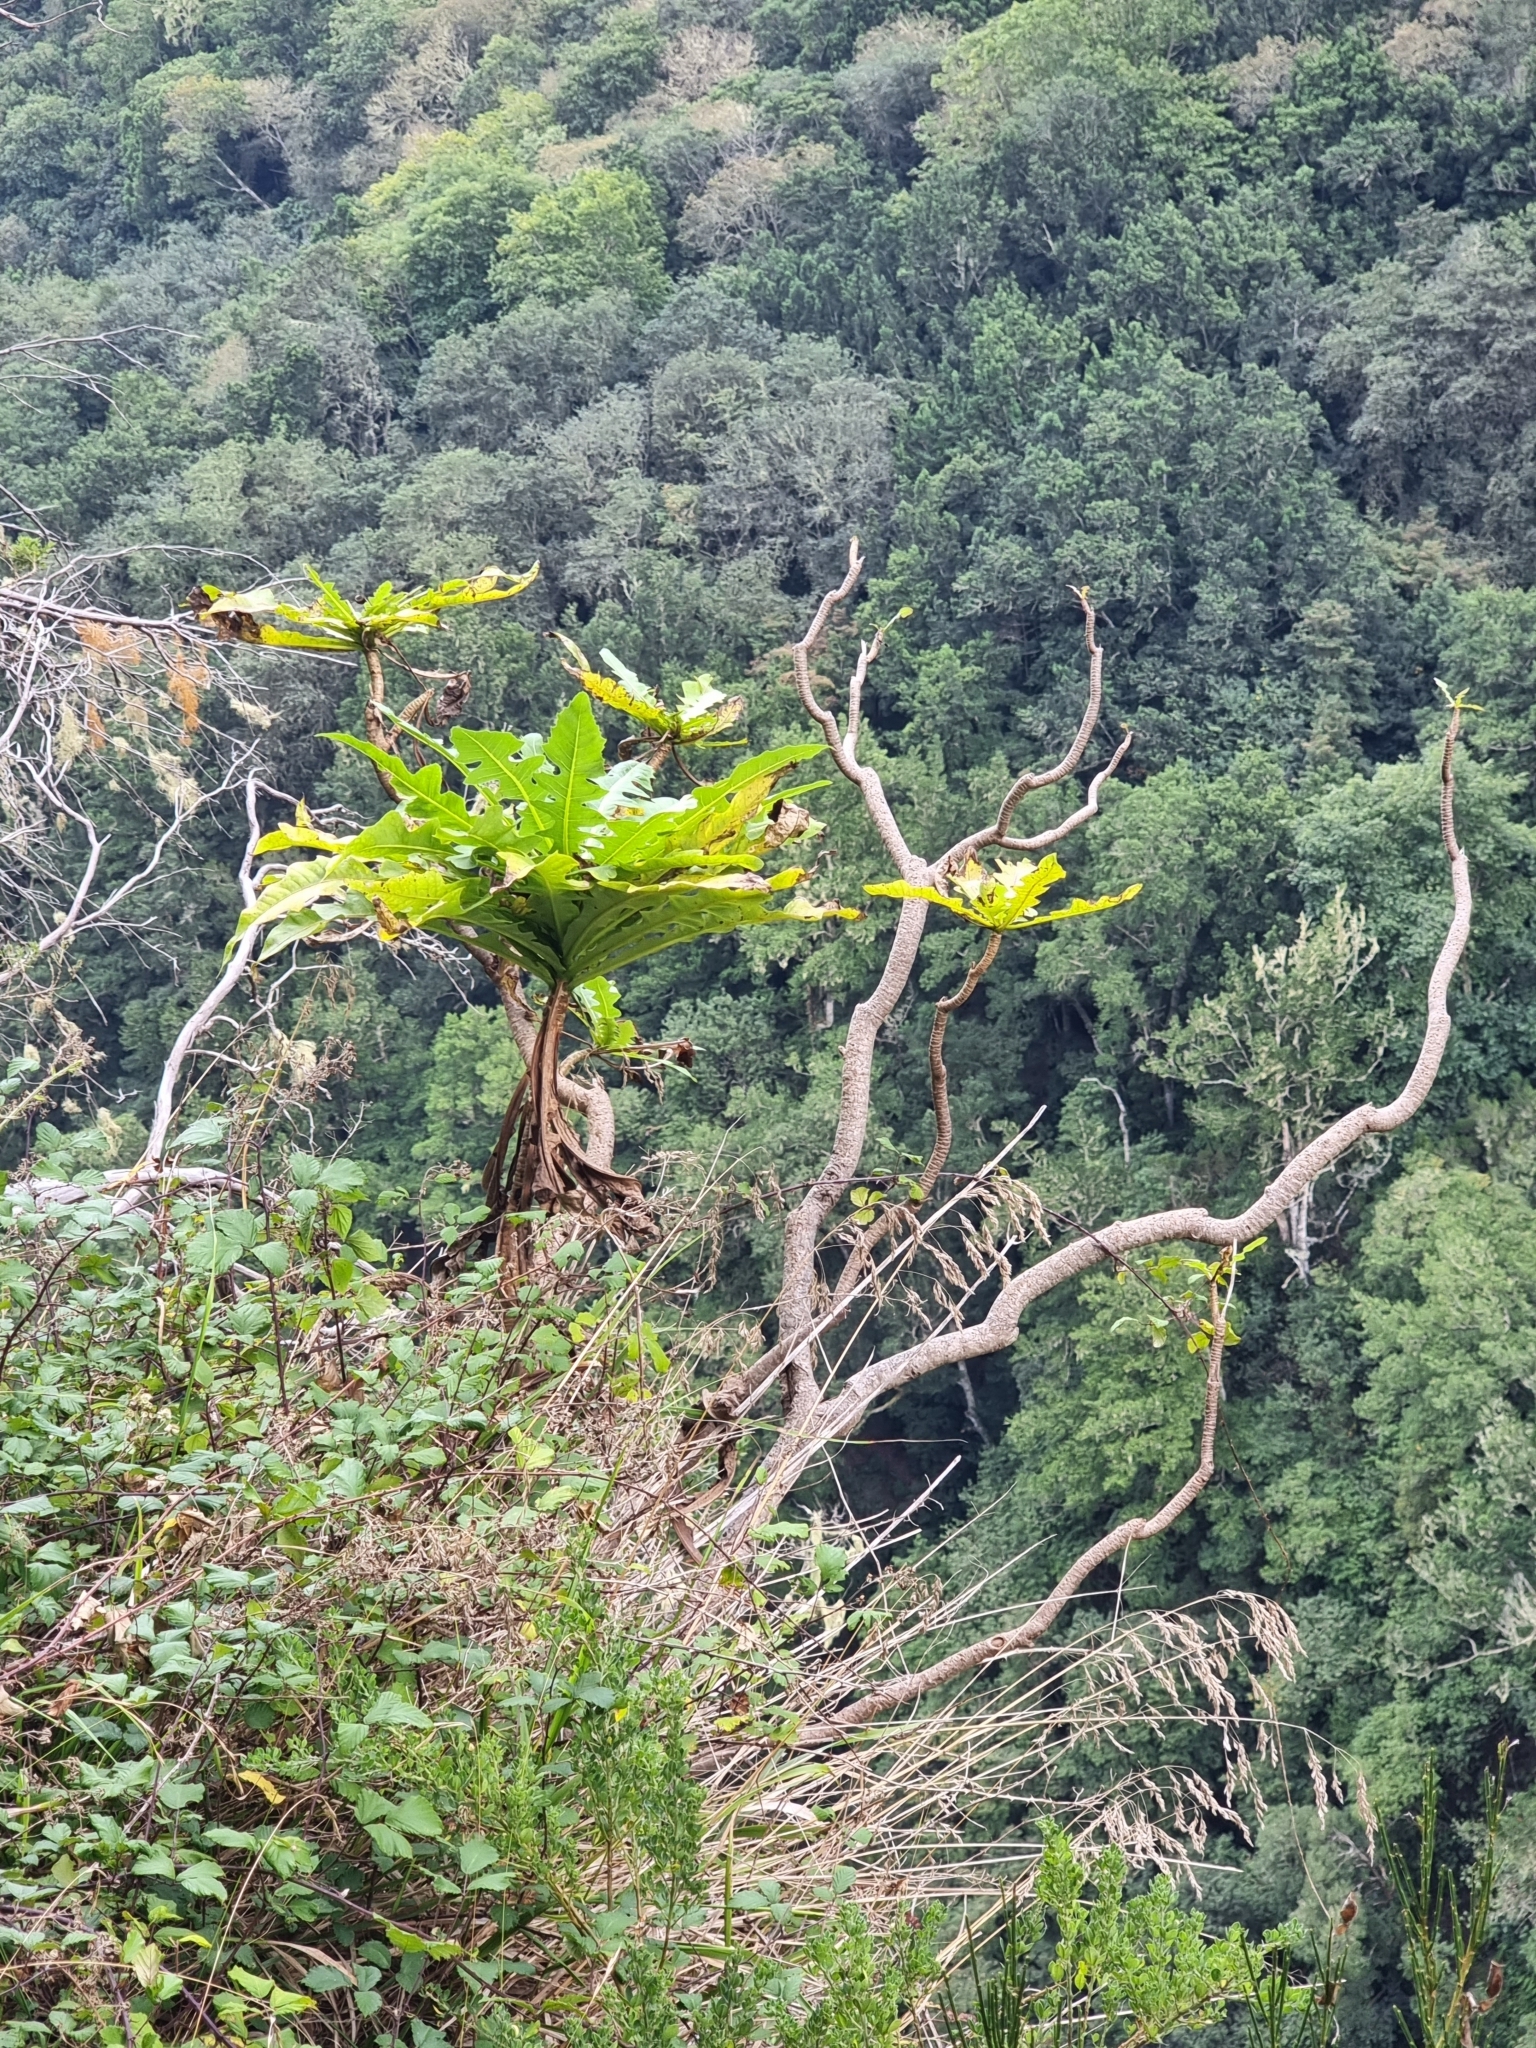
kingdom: Plantae
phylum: Tracheophyta
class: Magnoliopsida
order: Asterales
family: Asteraceae
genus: Sonchus
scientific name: Sonchus fruticosus
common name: Shrubby sow-thistle
